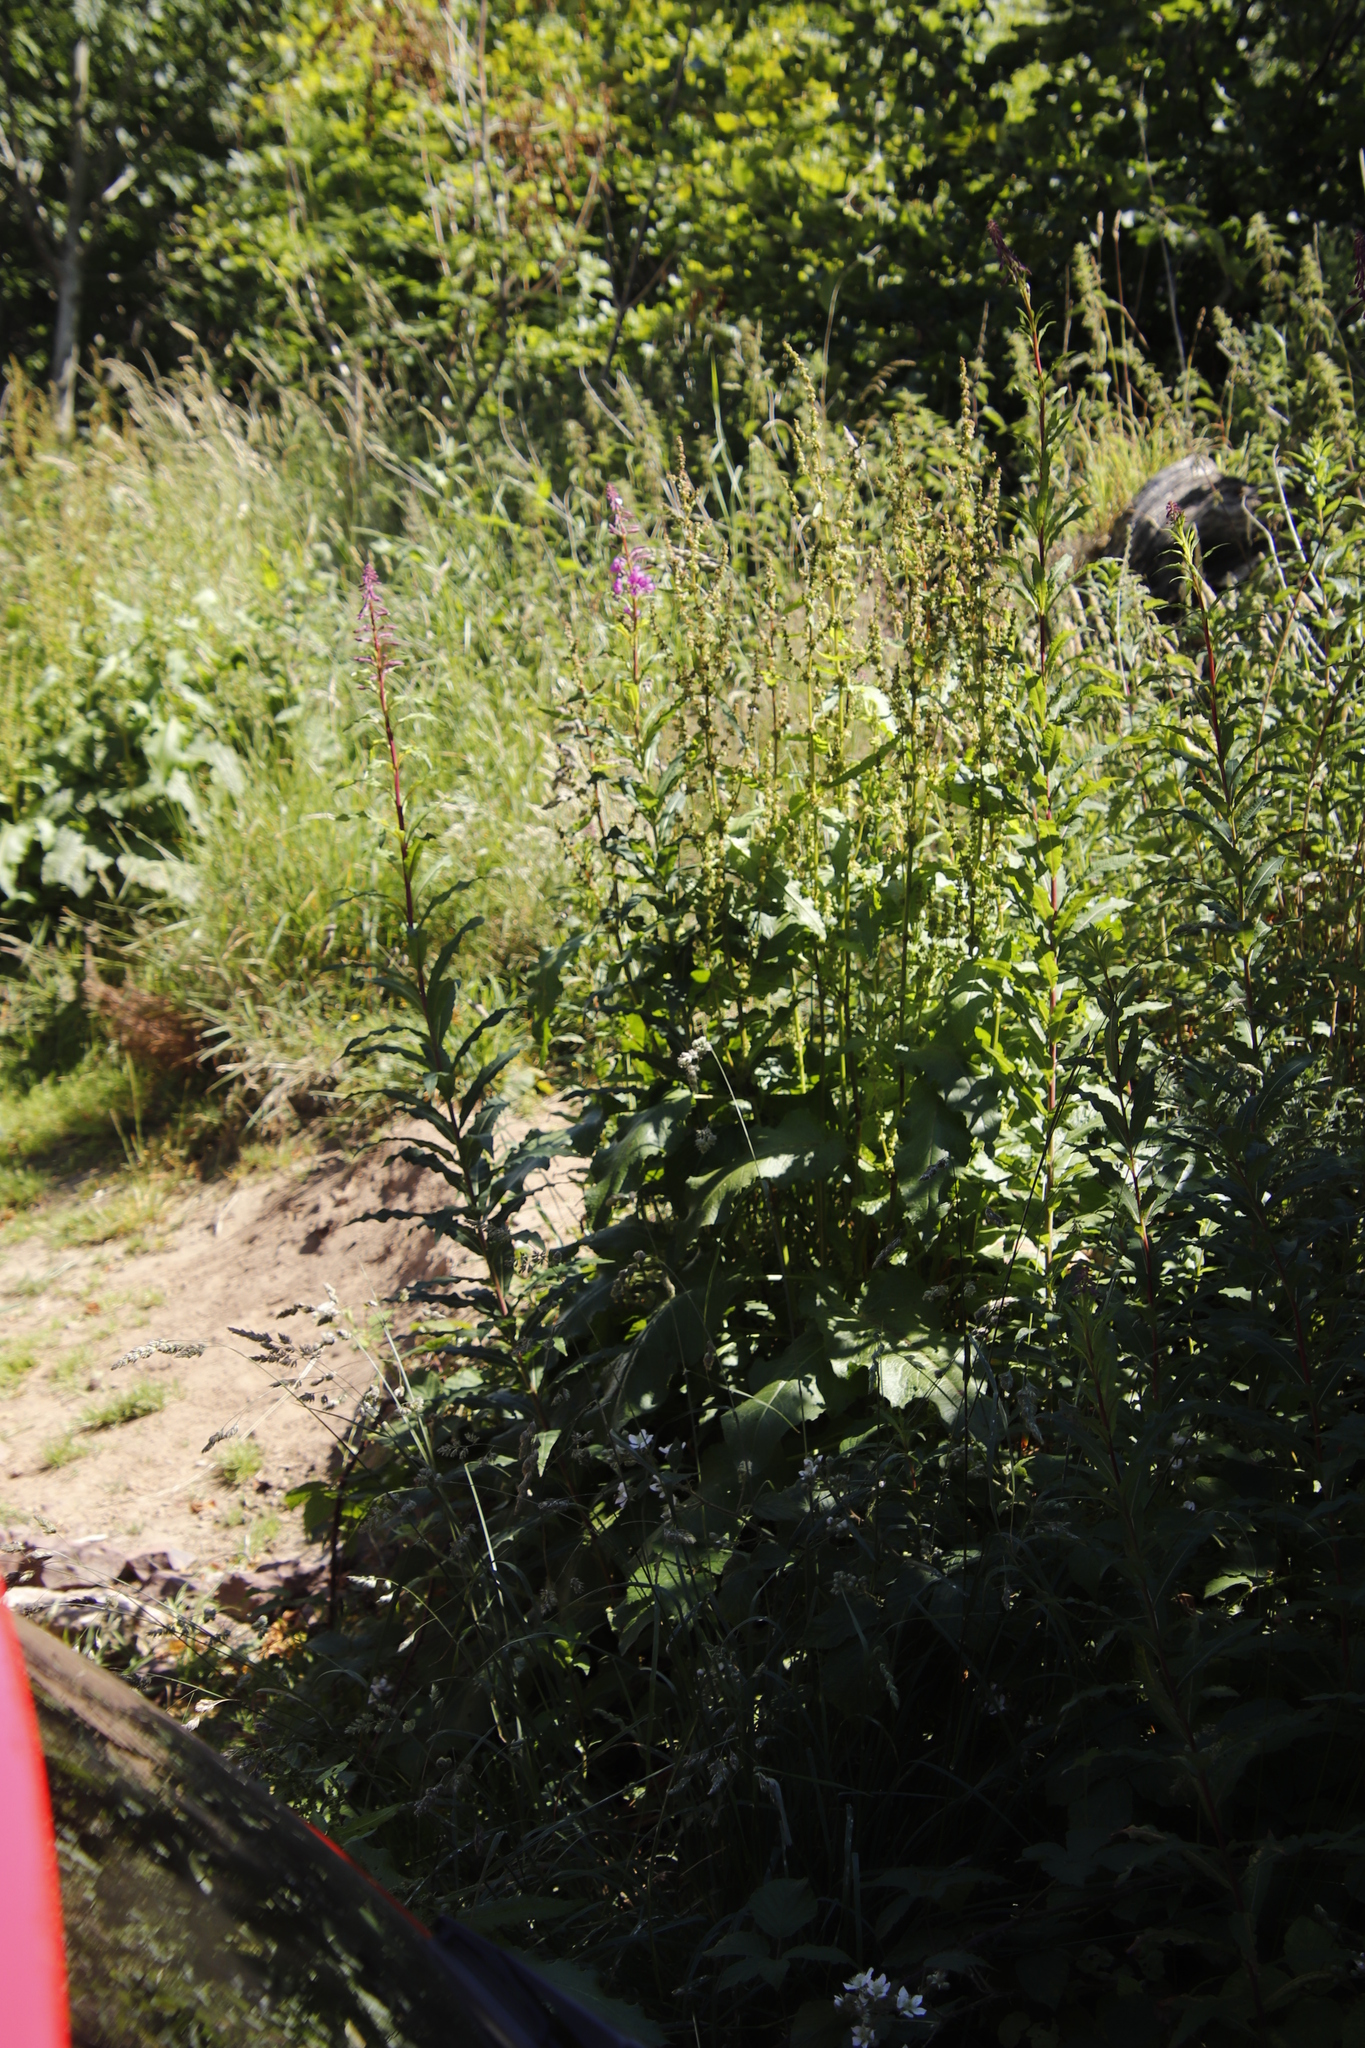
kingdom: Plantae
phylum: Tracheophyta
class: Magnoliopsida
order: Myrtales
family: Onagraceae
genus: Chamaenerion
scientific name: Chamaenerion angustifolium
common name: Fireweed
